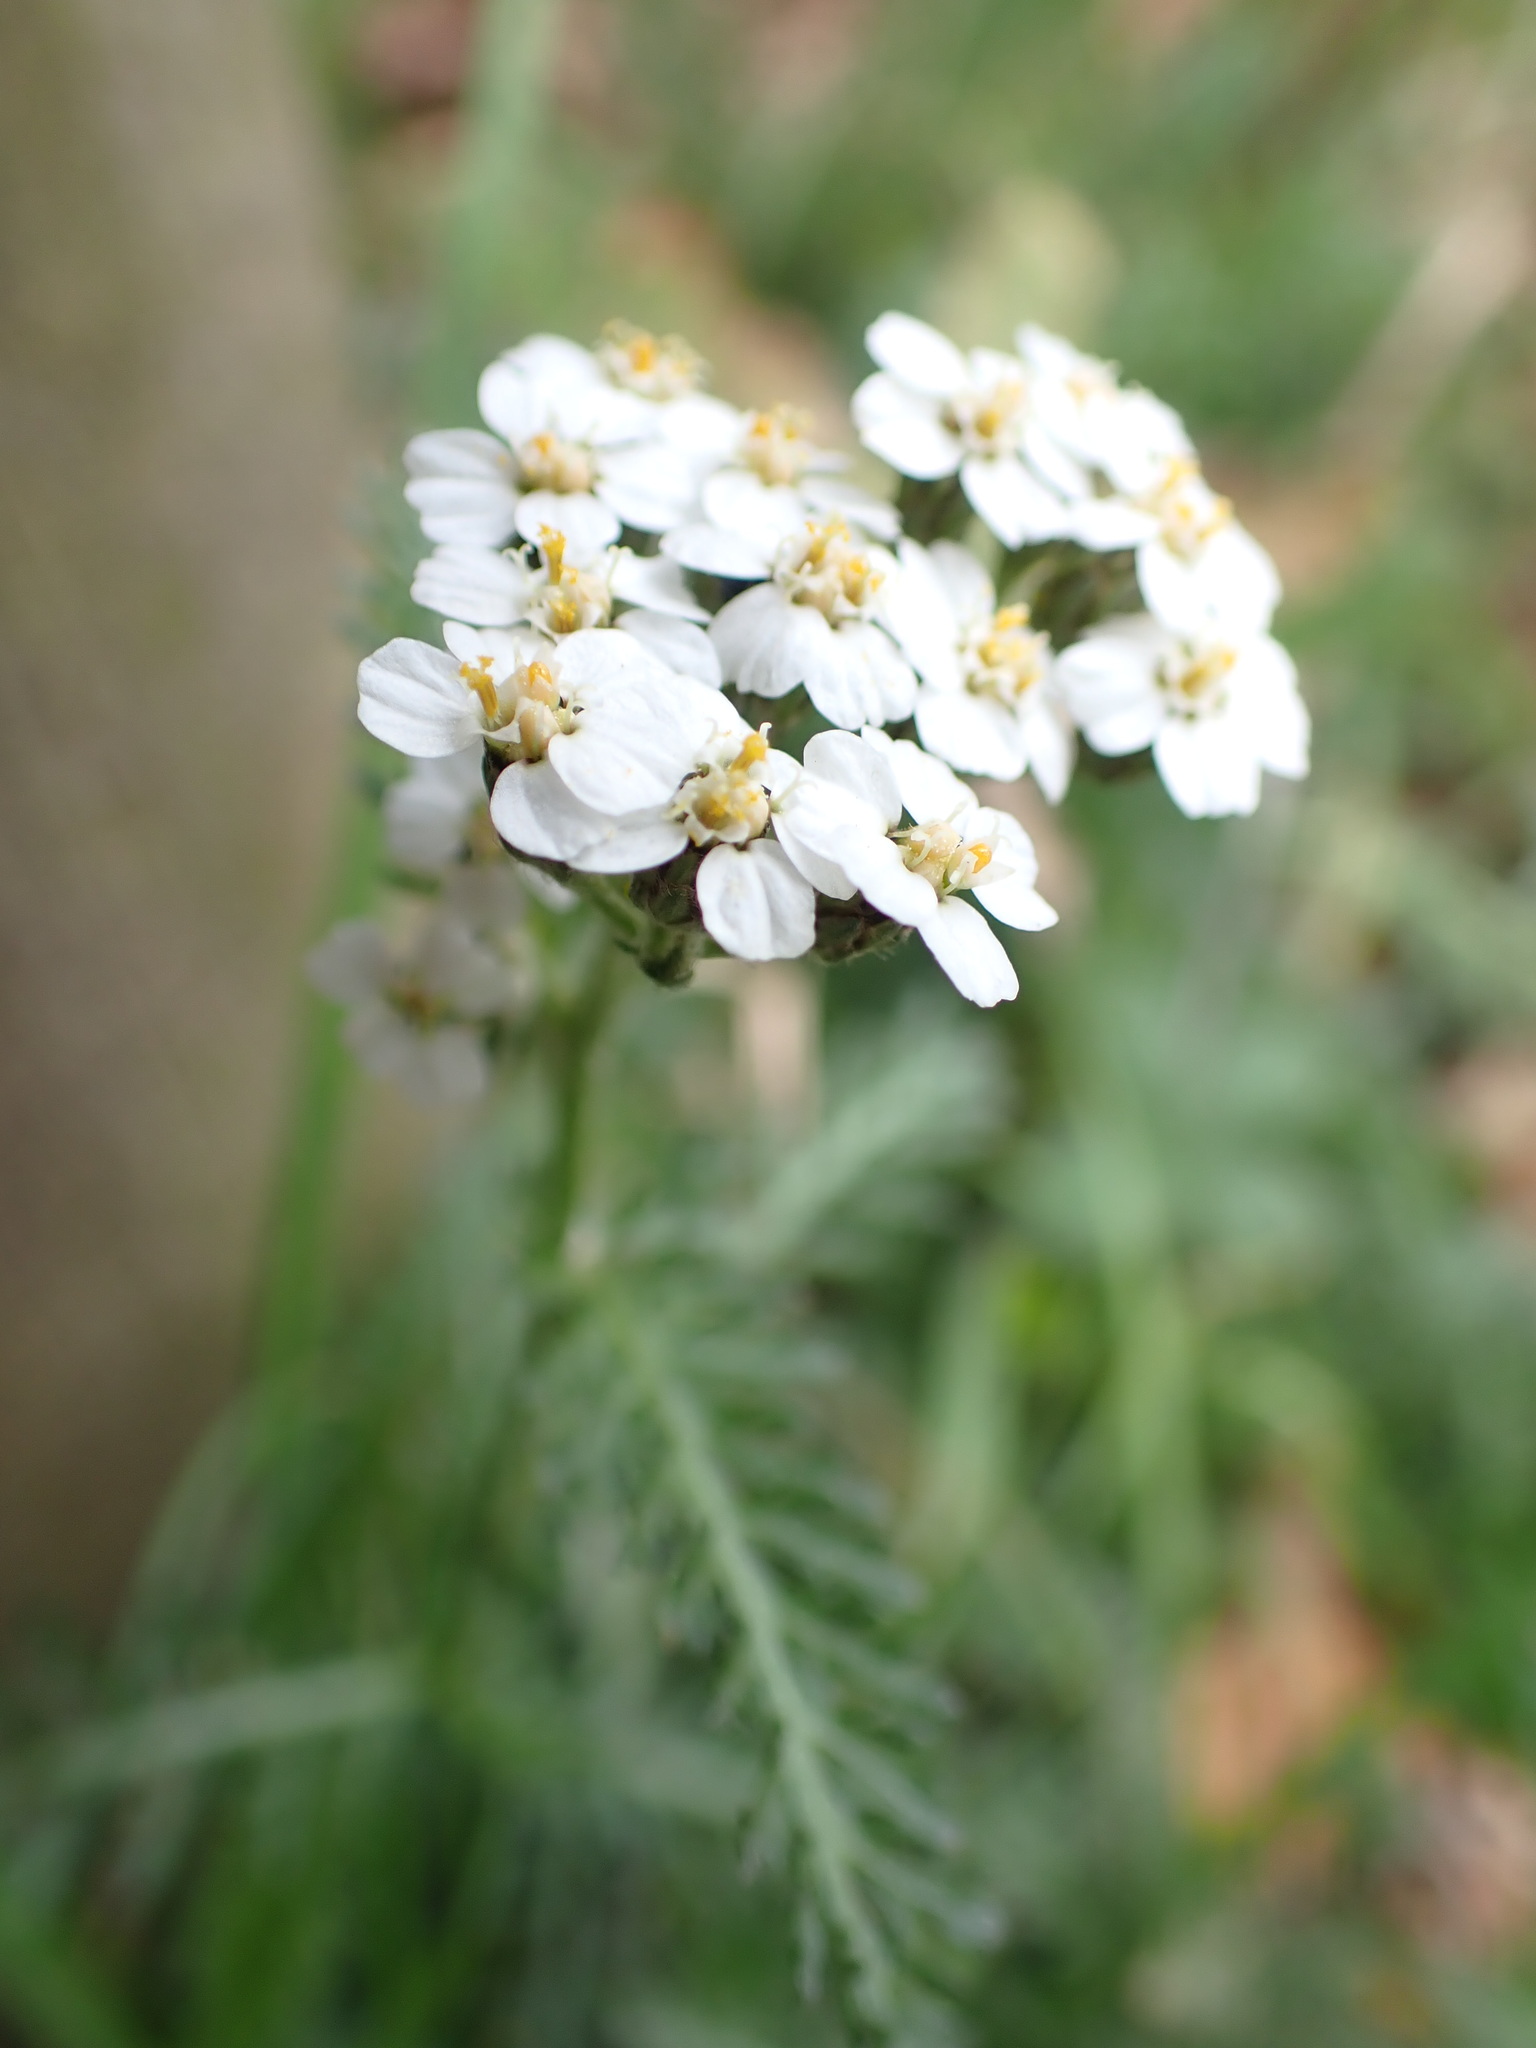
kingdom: Plantae
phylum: Tracheophyta
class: Magnoliopsida
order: Asterales
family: Asteraceae
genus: Achillea
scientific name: Achillea millefolium
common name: Yarrow
